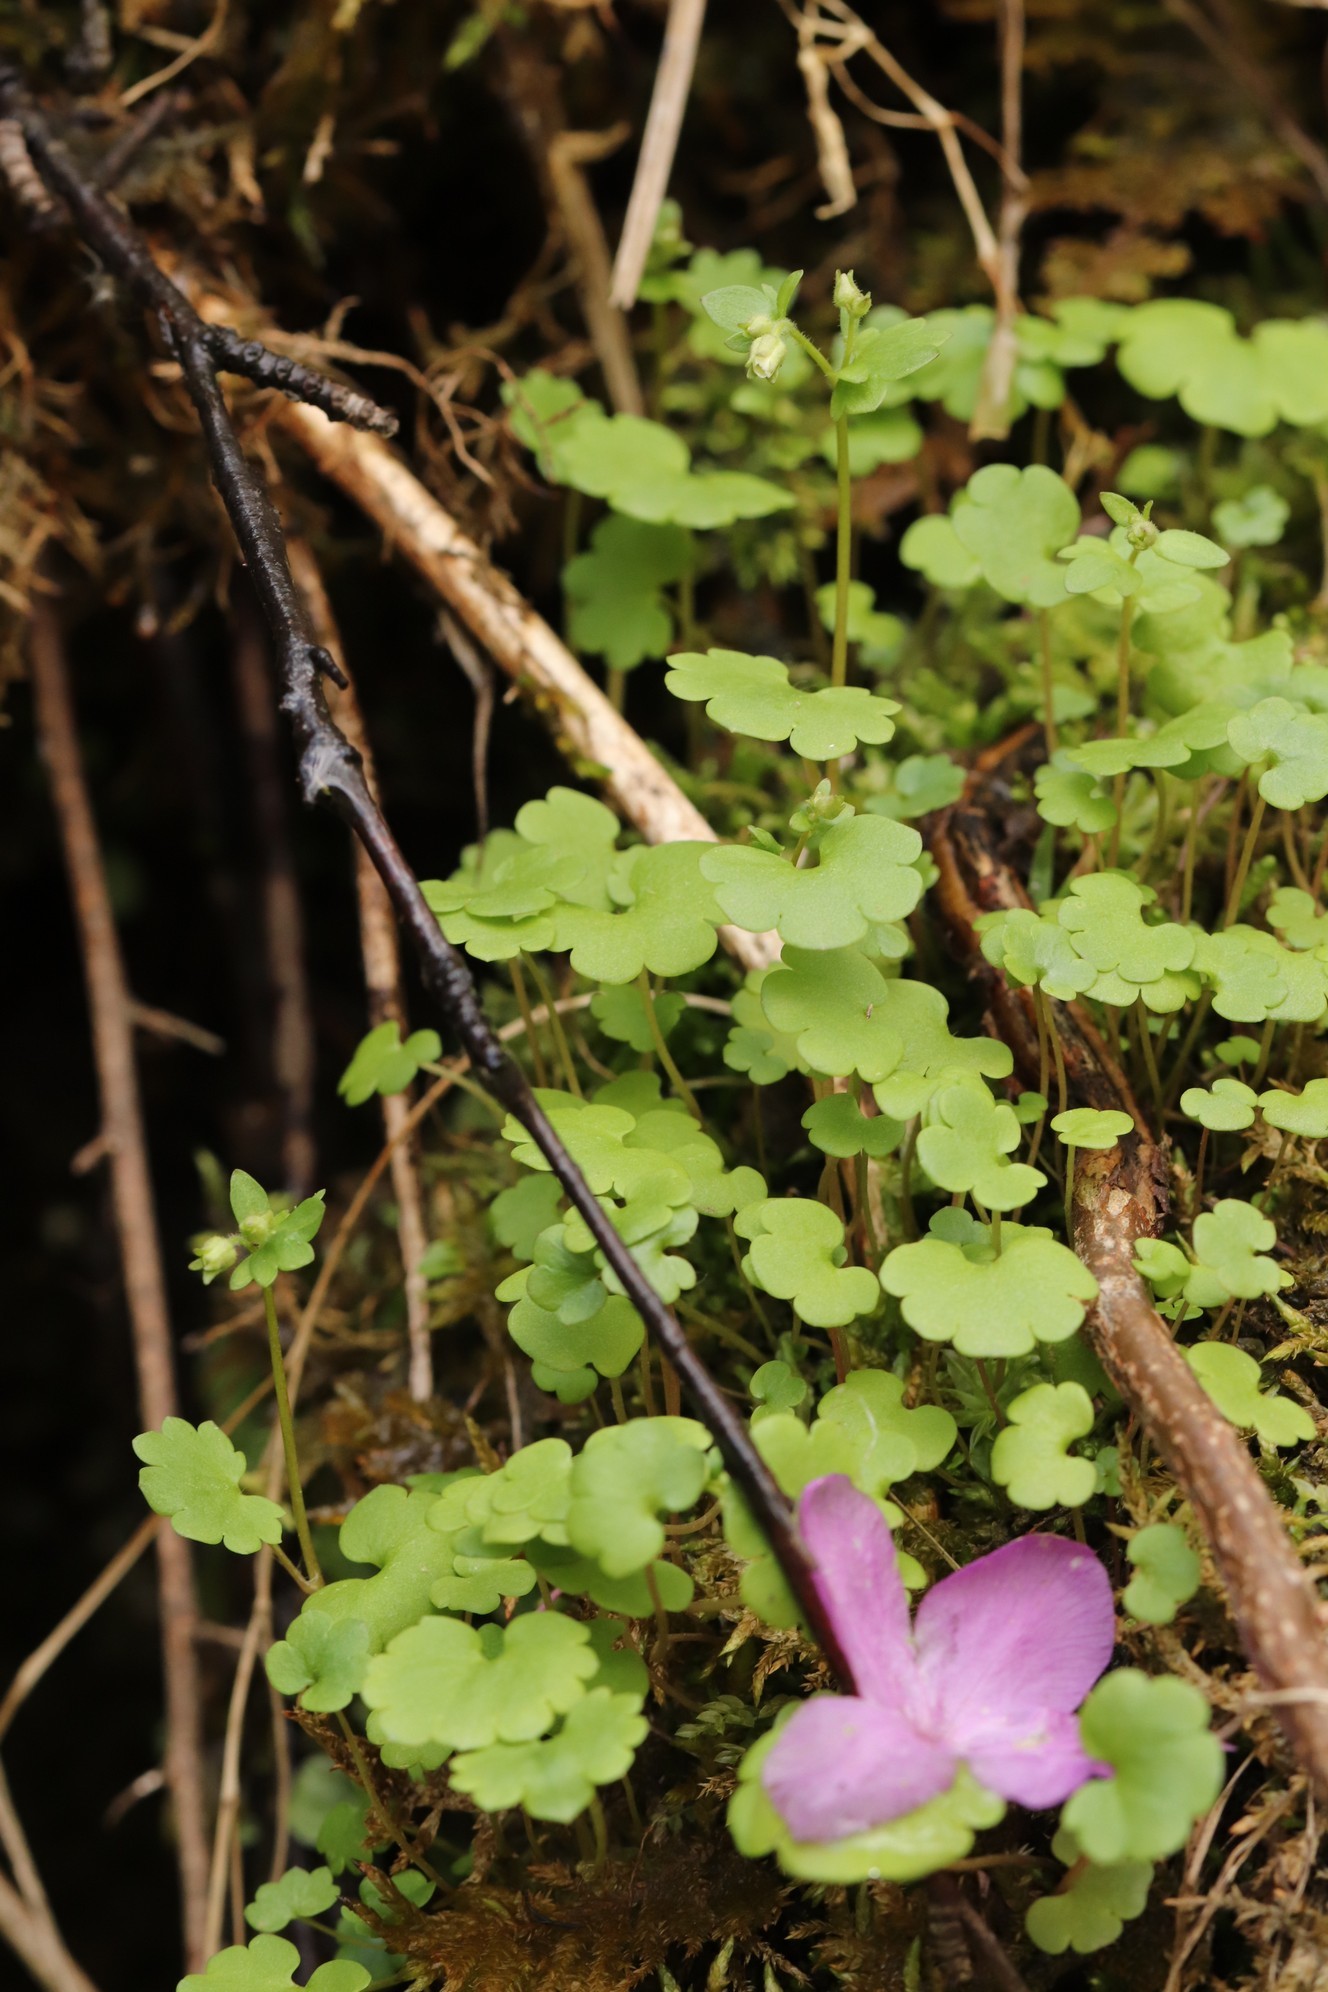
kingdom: Plantae
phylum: Tracheophyta
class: Magnoliopsida
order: Saxifragales
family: Saxifragaceae
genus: Saxifraga
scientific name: Saxifraga sibirica
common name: Siberian saxifrage
